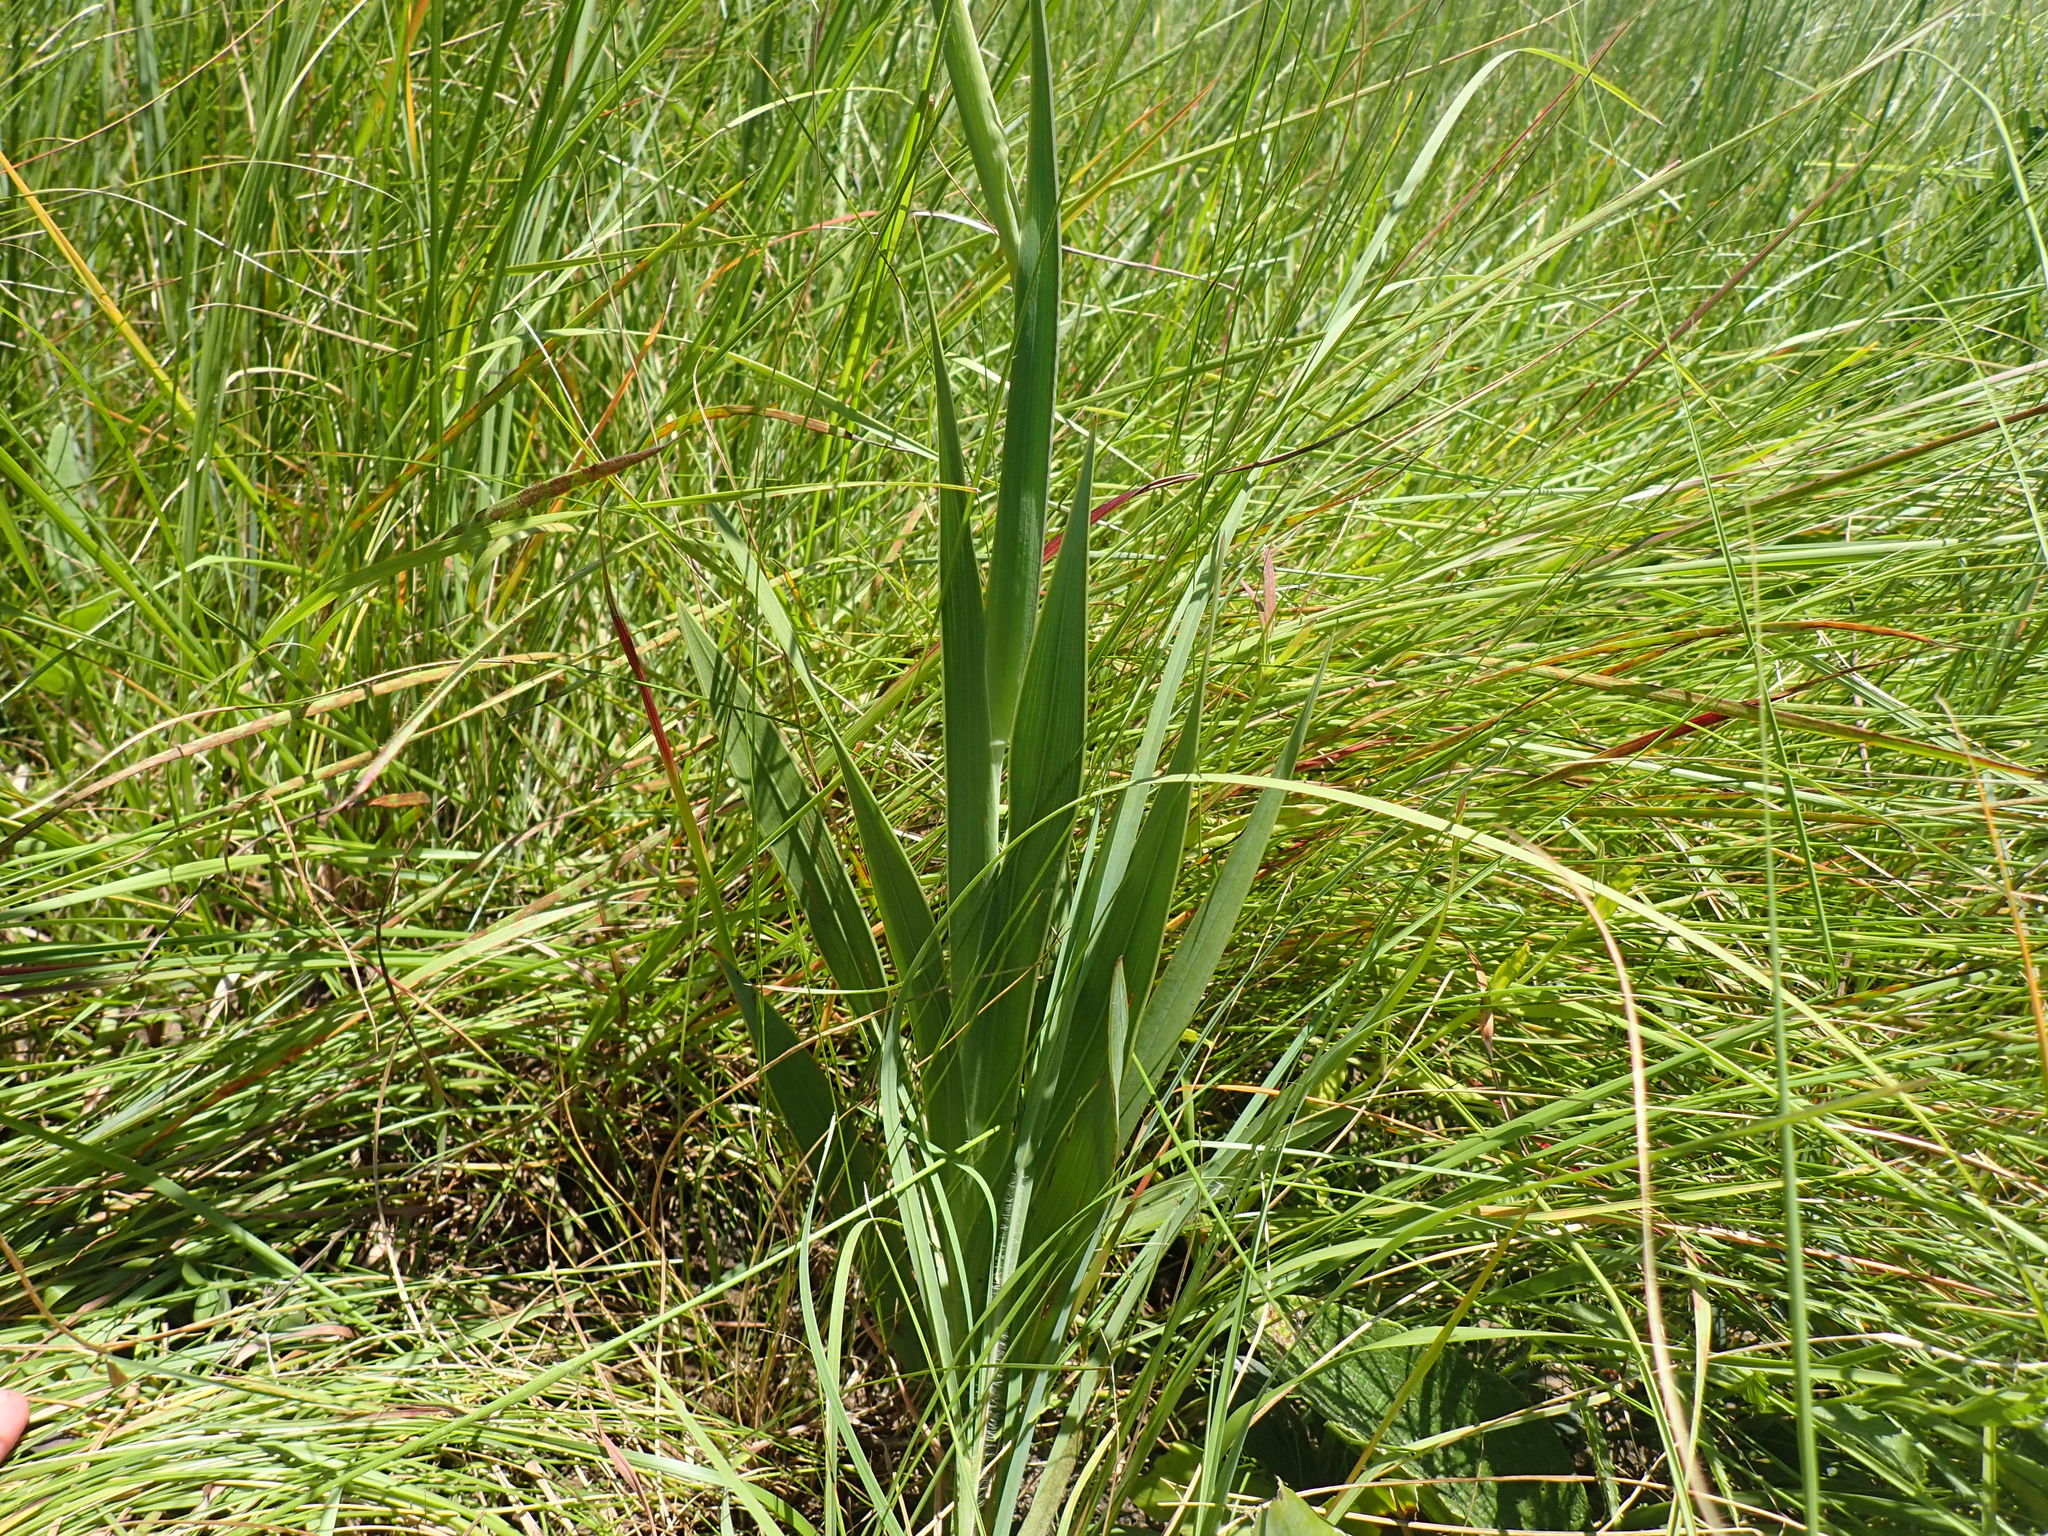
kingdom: Plantae
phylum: Tracheophyta
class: Liliopsida
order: Asparagales
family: Iridaceae
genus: Gladiolus
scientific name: Gladiolus ecklonii
